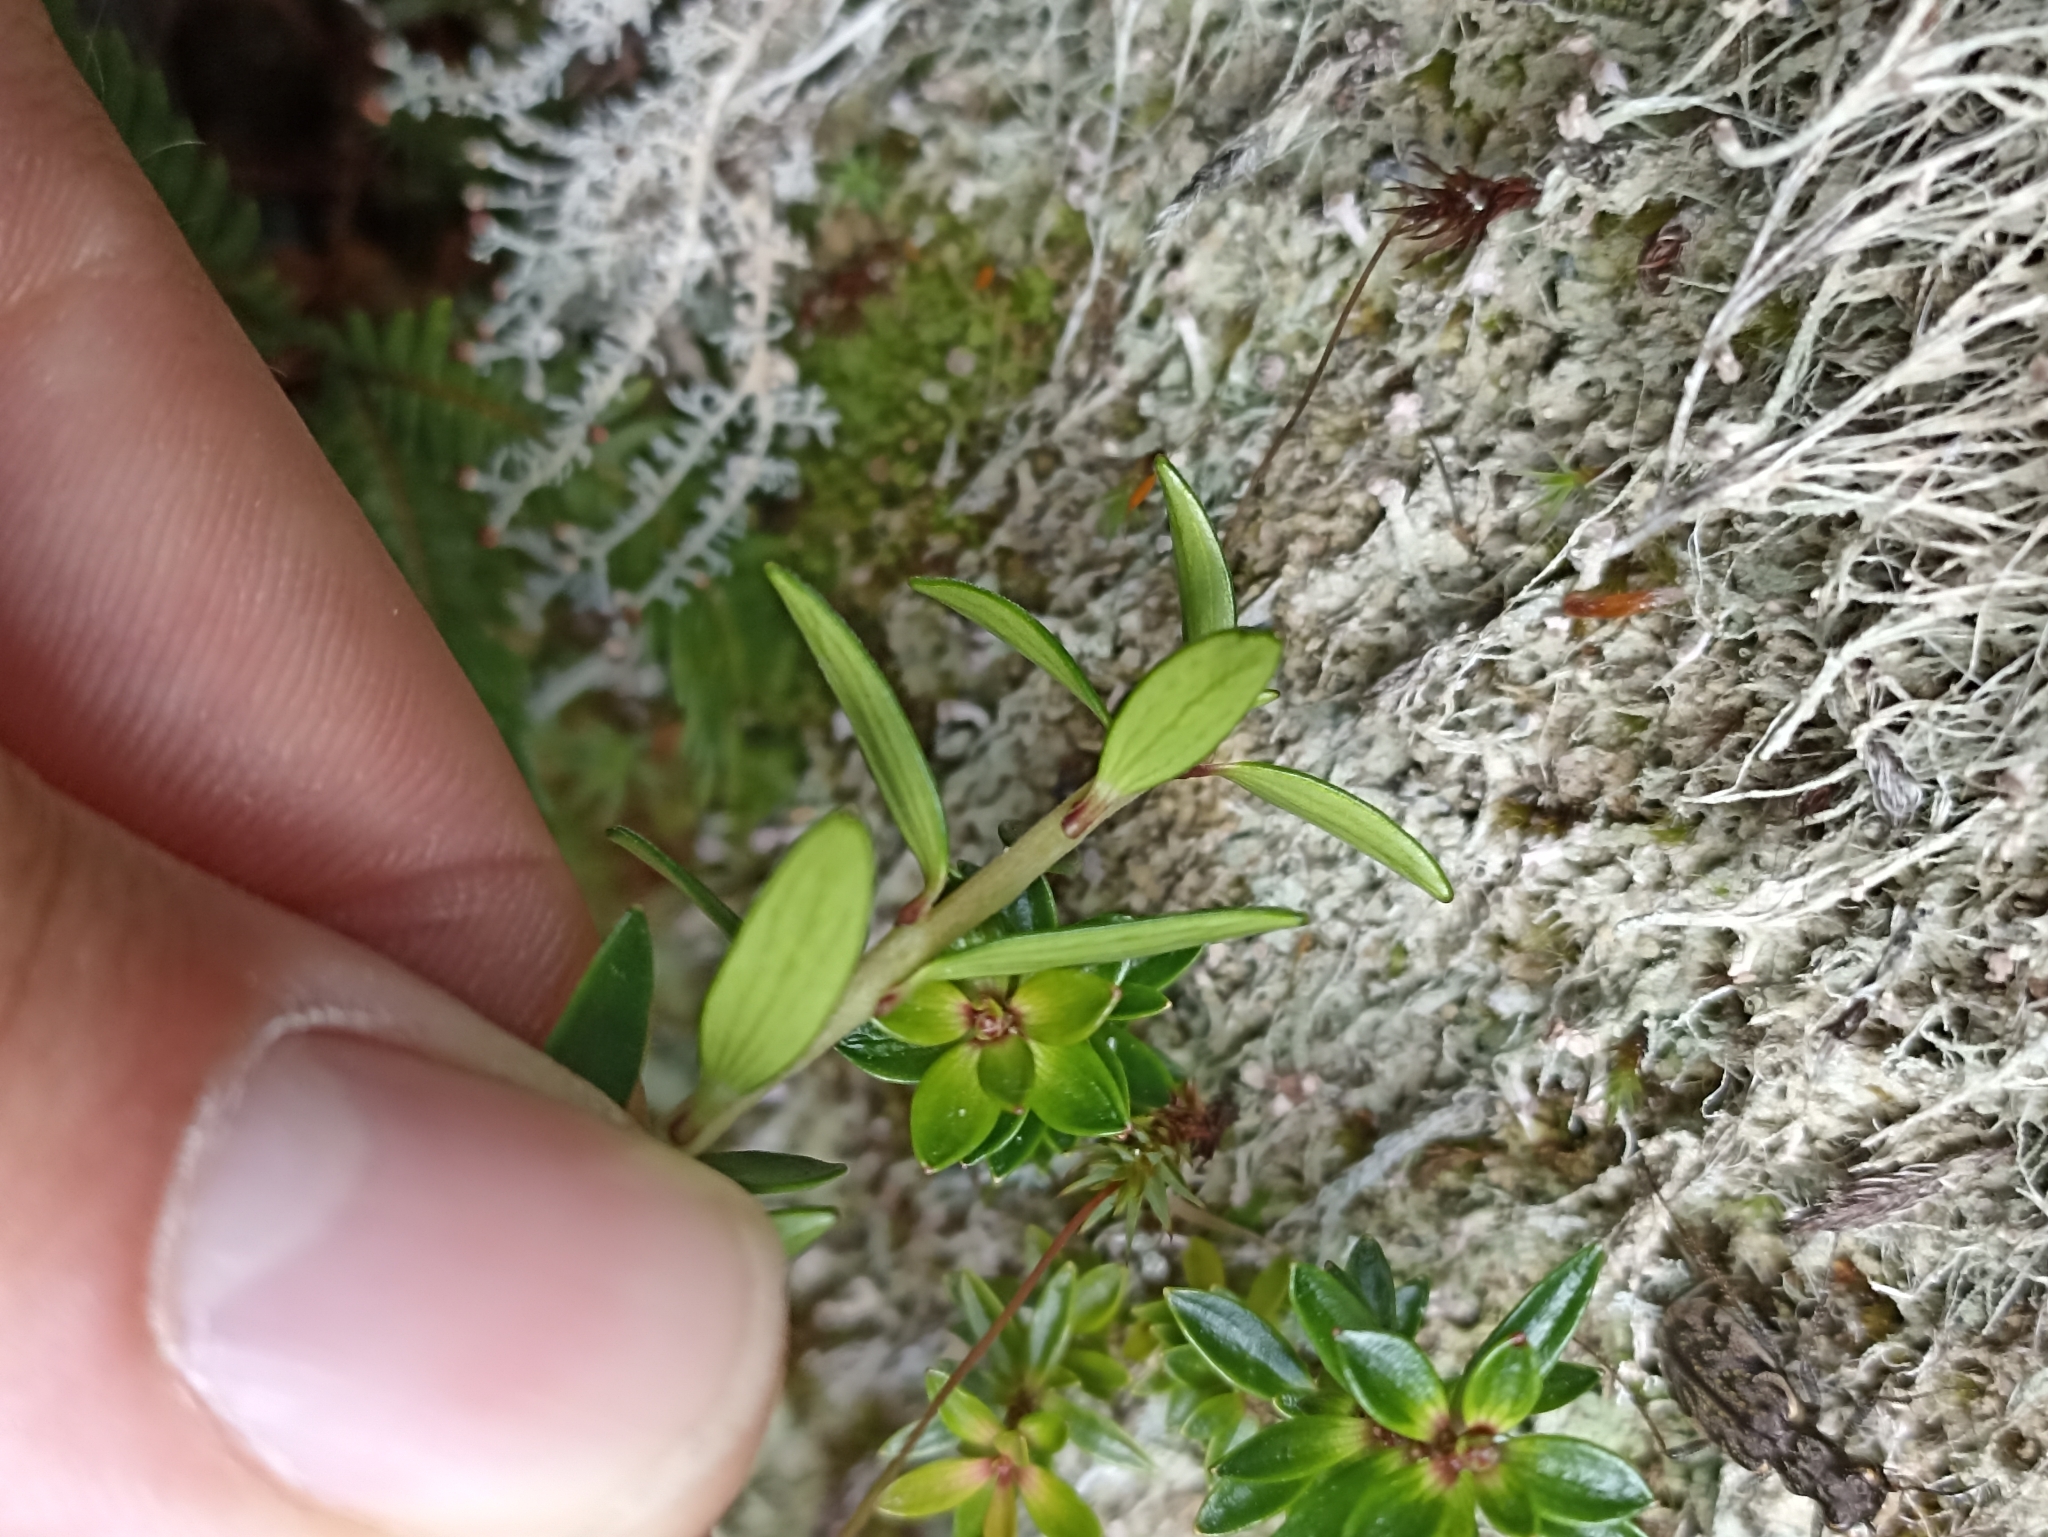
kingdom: Plantae
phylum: Tracheophyta
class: Magnoliopsida
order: Ericales
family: Ericaceae
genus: Archeria
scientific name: Archeria traversii
